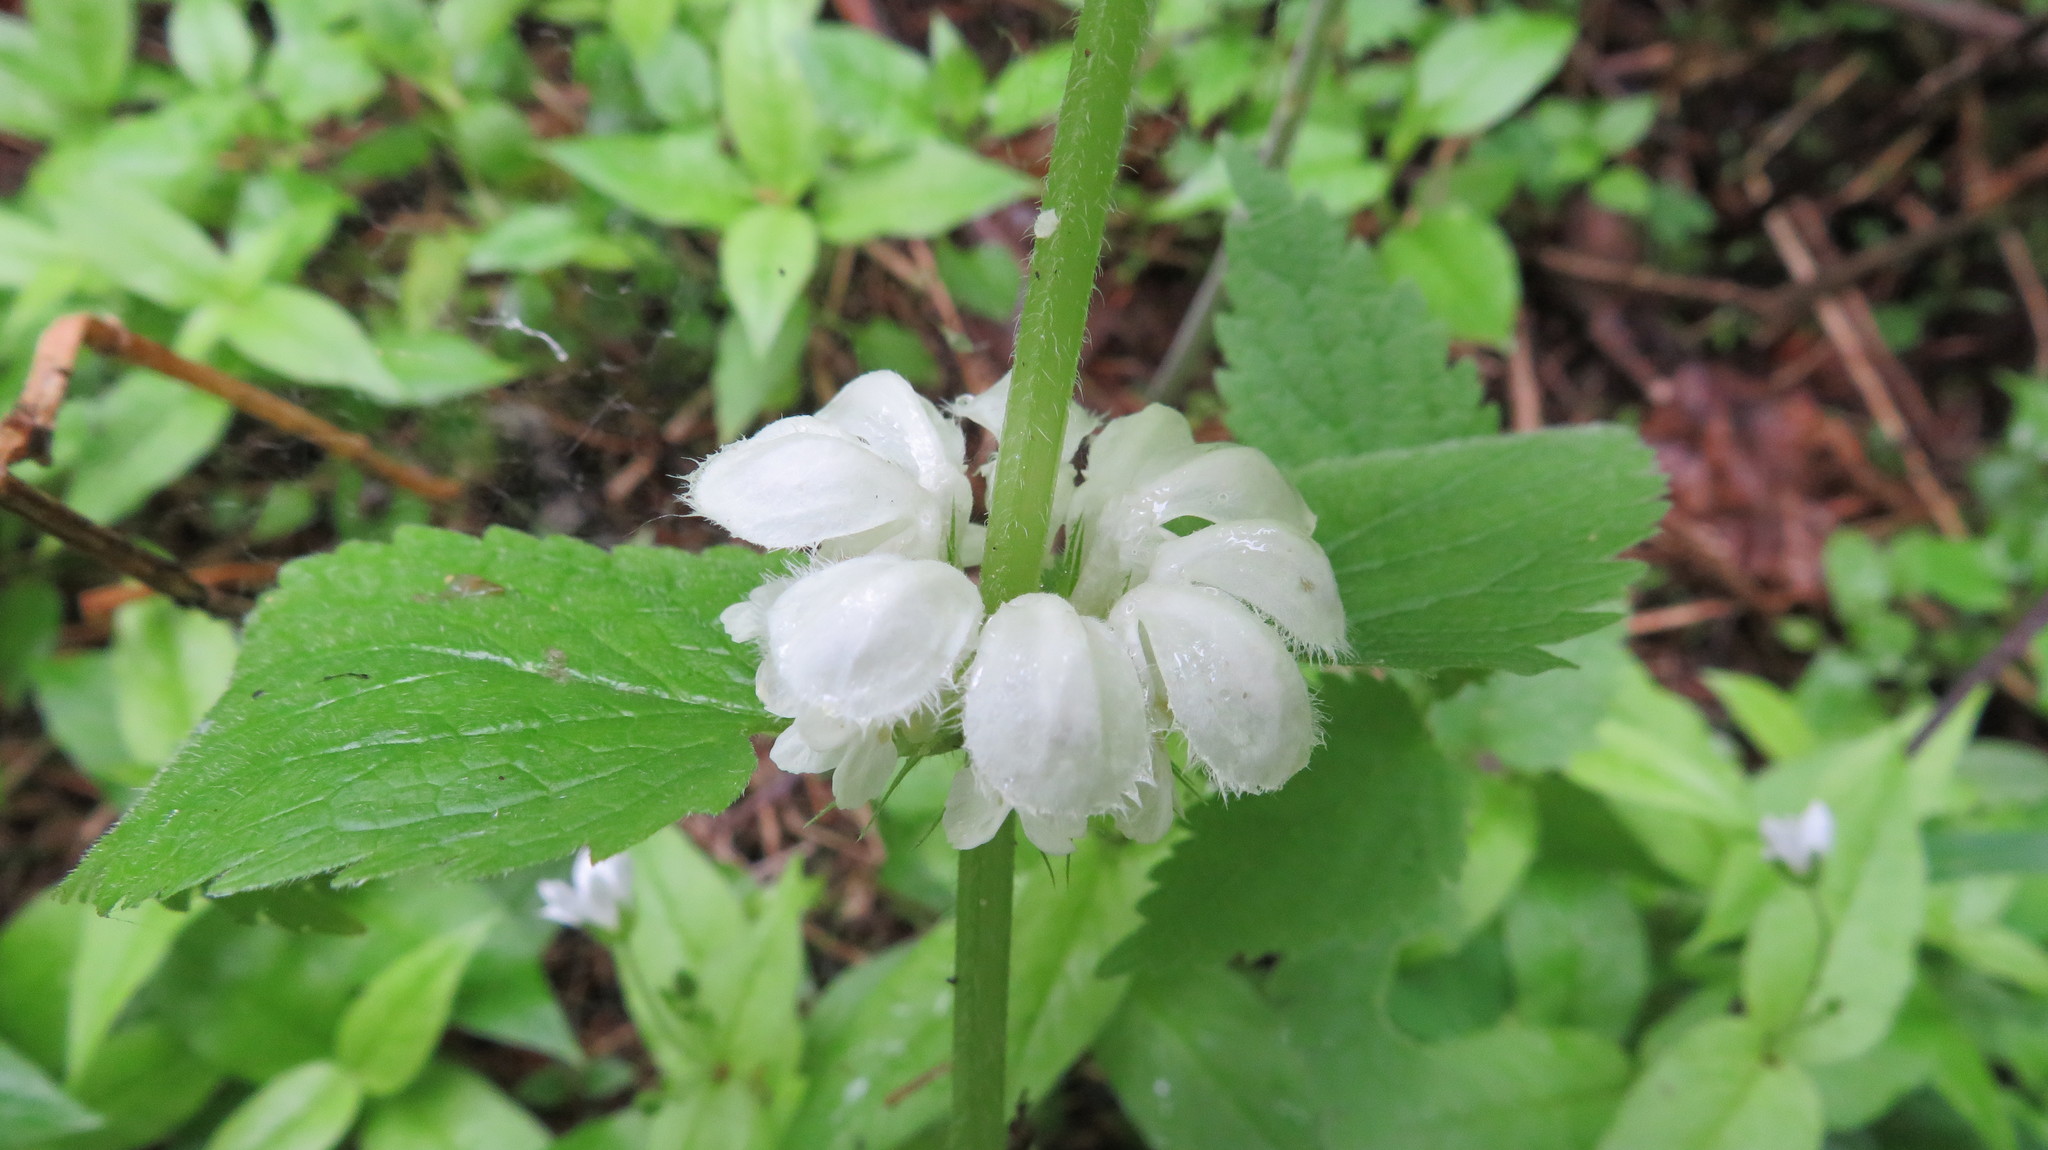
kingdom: Plantae
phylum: Tracheophyta
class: Magnoliopsida
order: Lamiales
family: Lamiaceae
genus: Lamium
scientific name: Lamium album
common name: White dead-nettle
